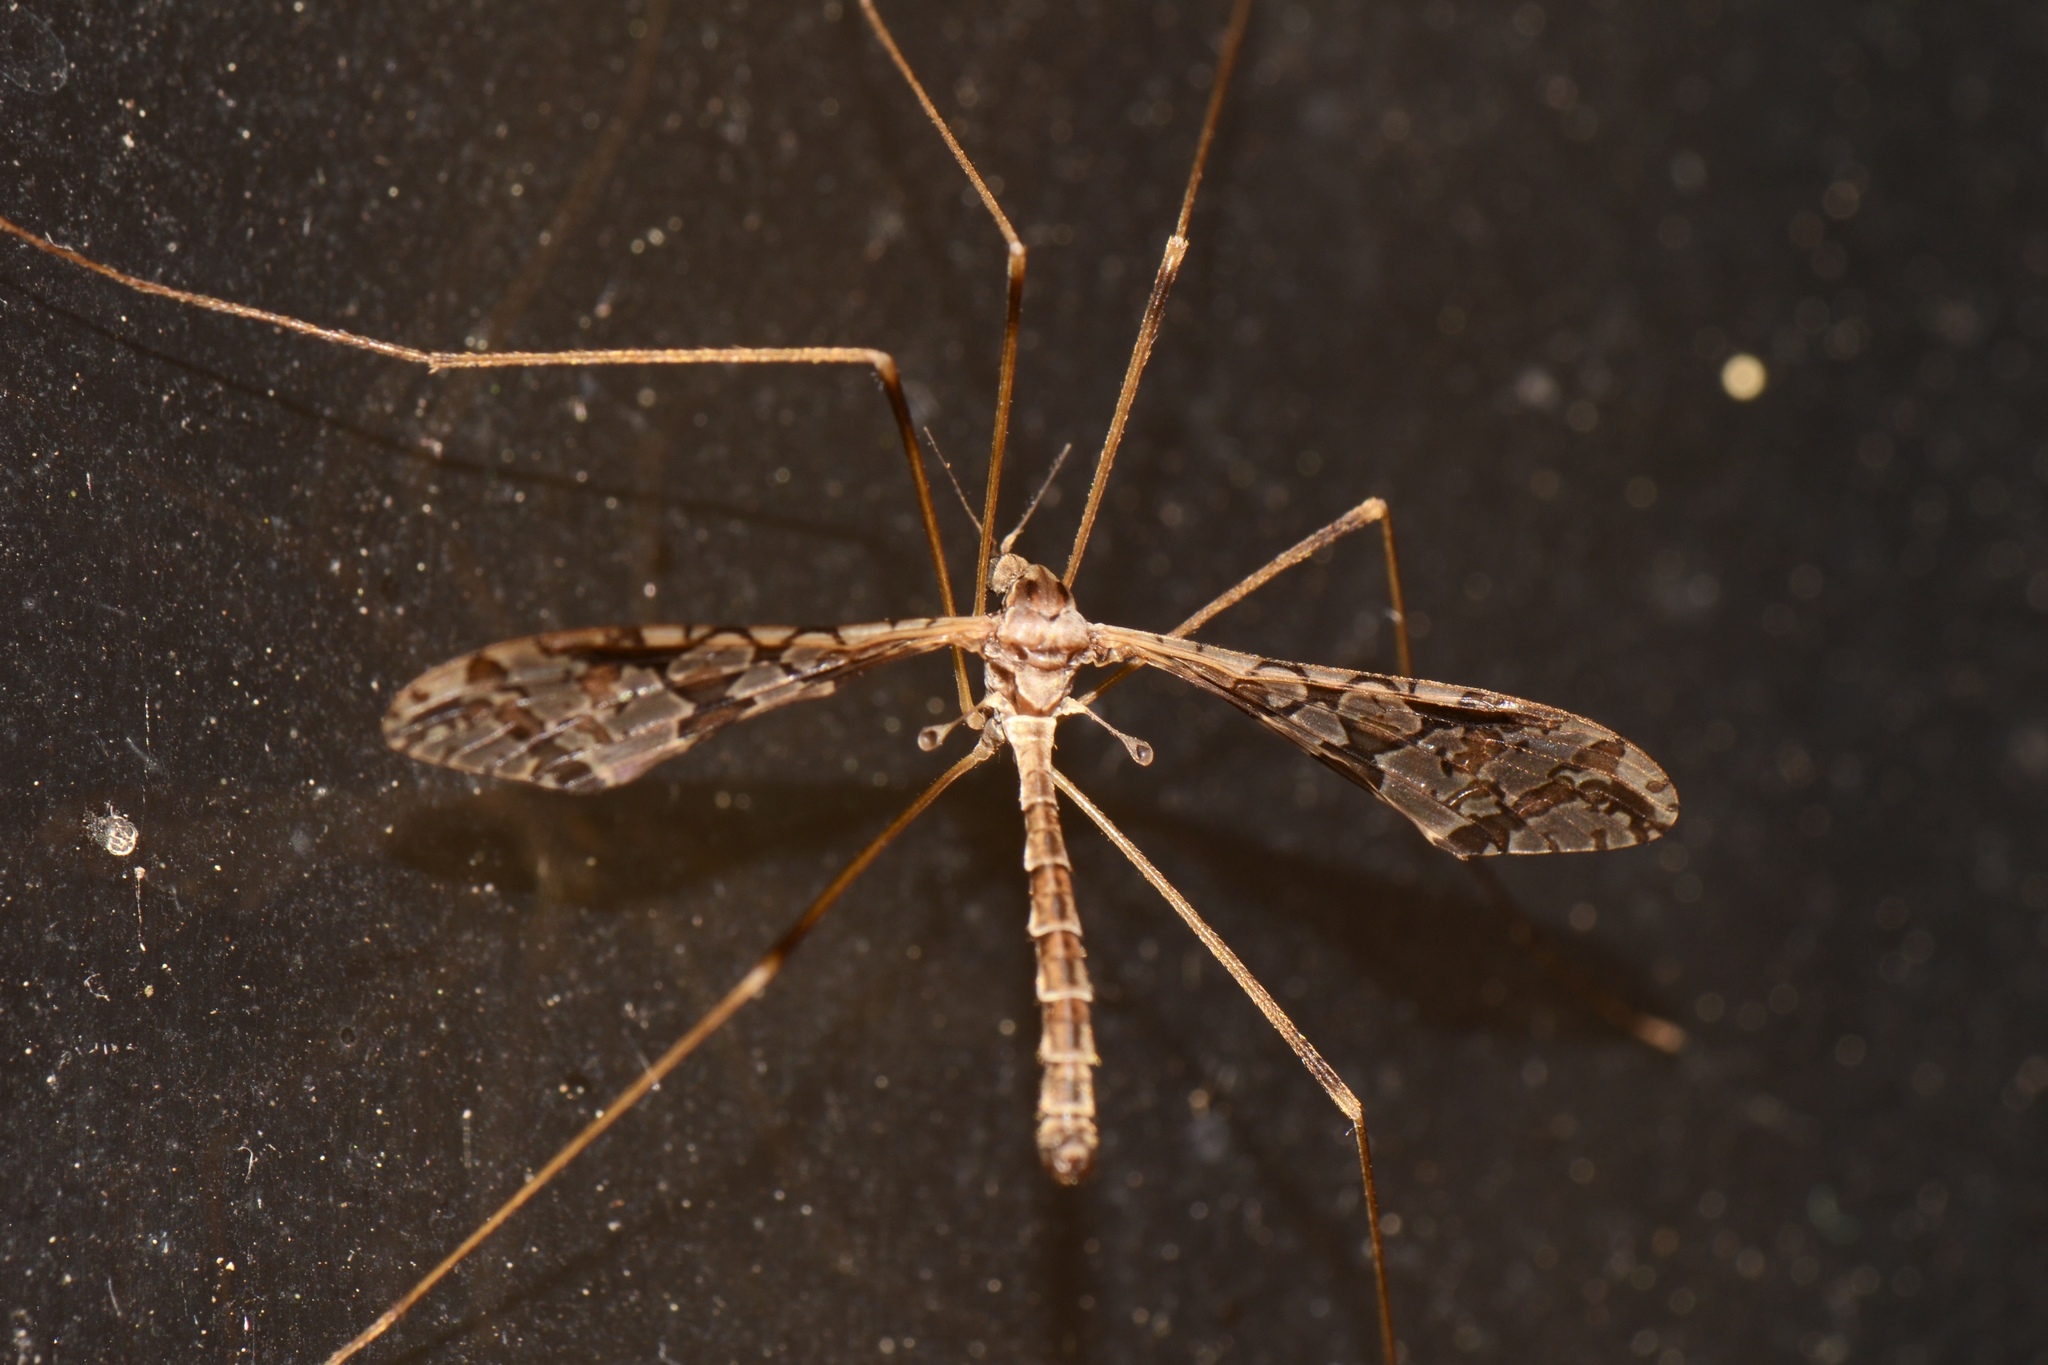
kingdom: Animalia
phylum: Arthropoda
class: Insecta
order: Diptera
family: Limoniidae
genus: Epiphragma
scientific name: Epiphragma solatrix
